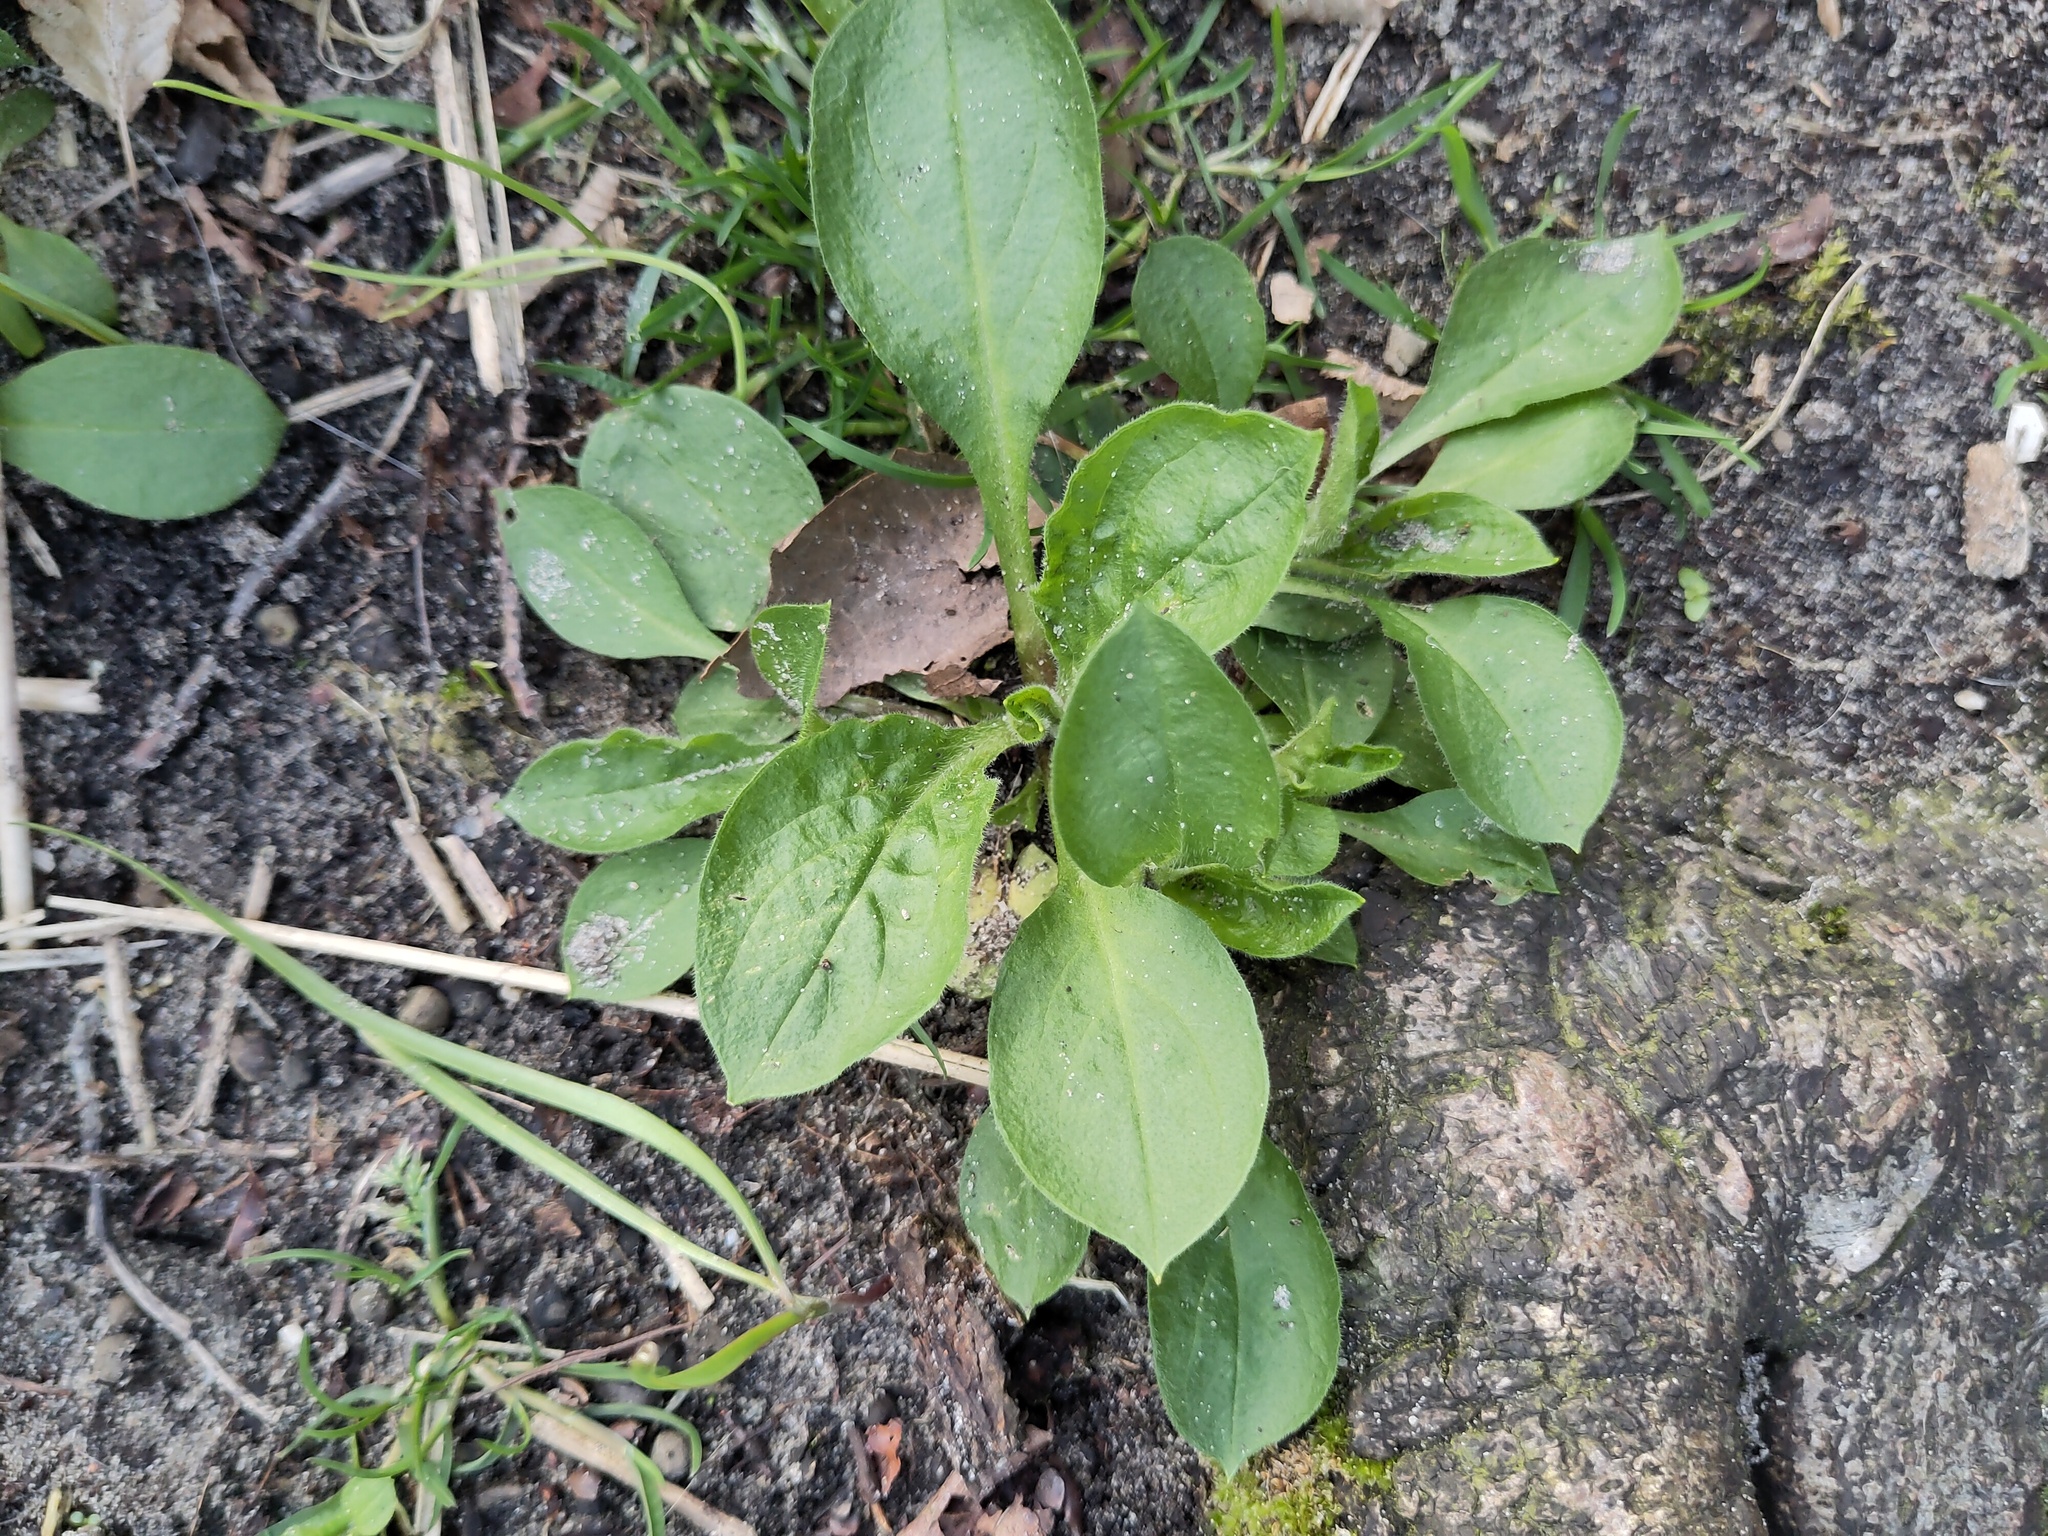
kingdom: Plantae
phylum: Tracheophyta
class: Magnoliopsida
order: Lamiales
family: Plantaginaceae
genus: Plantago
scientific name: Plantago major
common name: Common plantain
